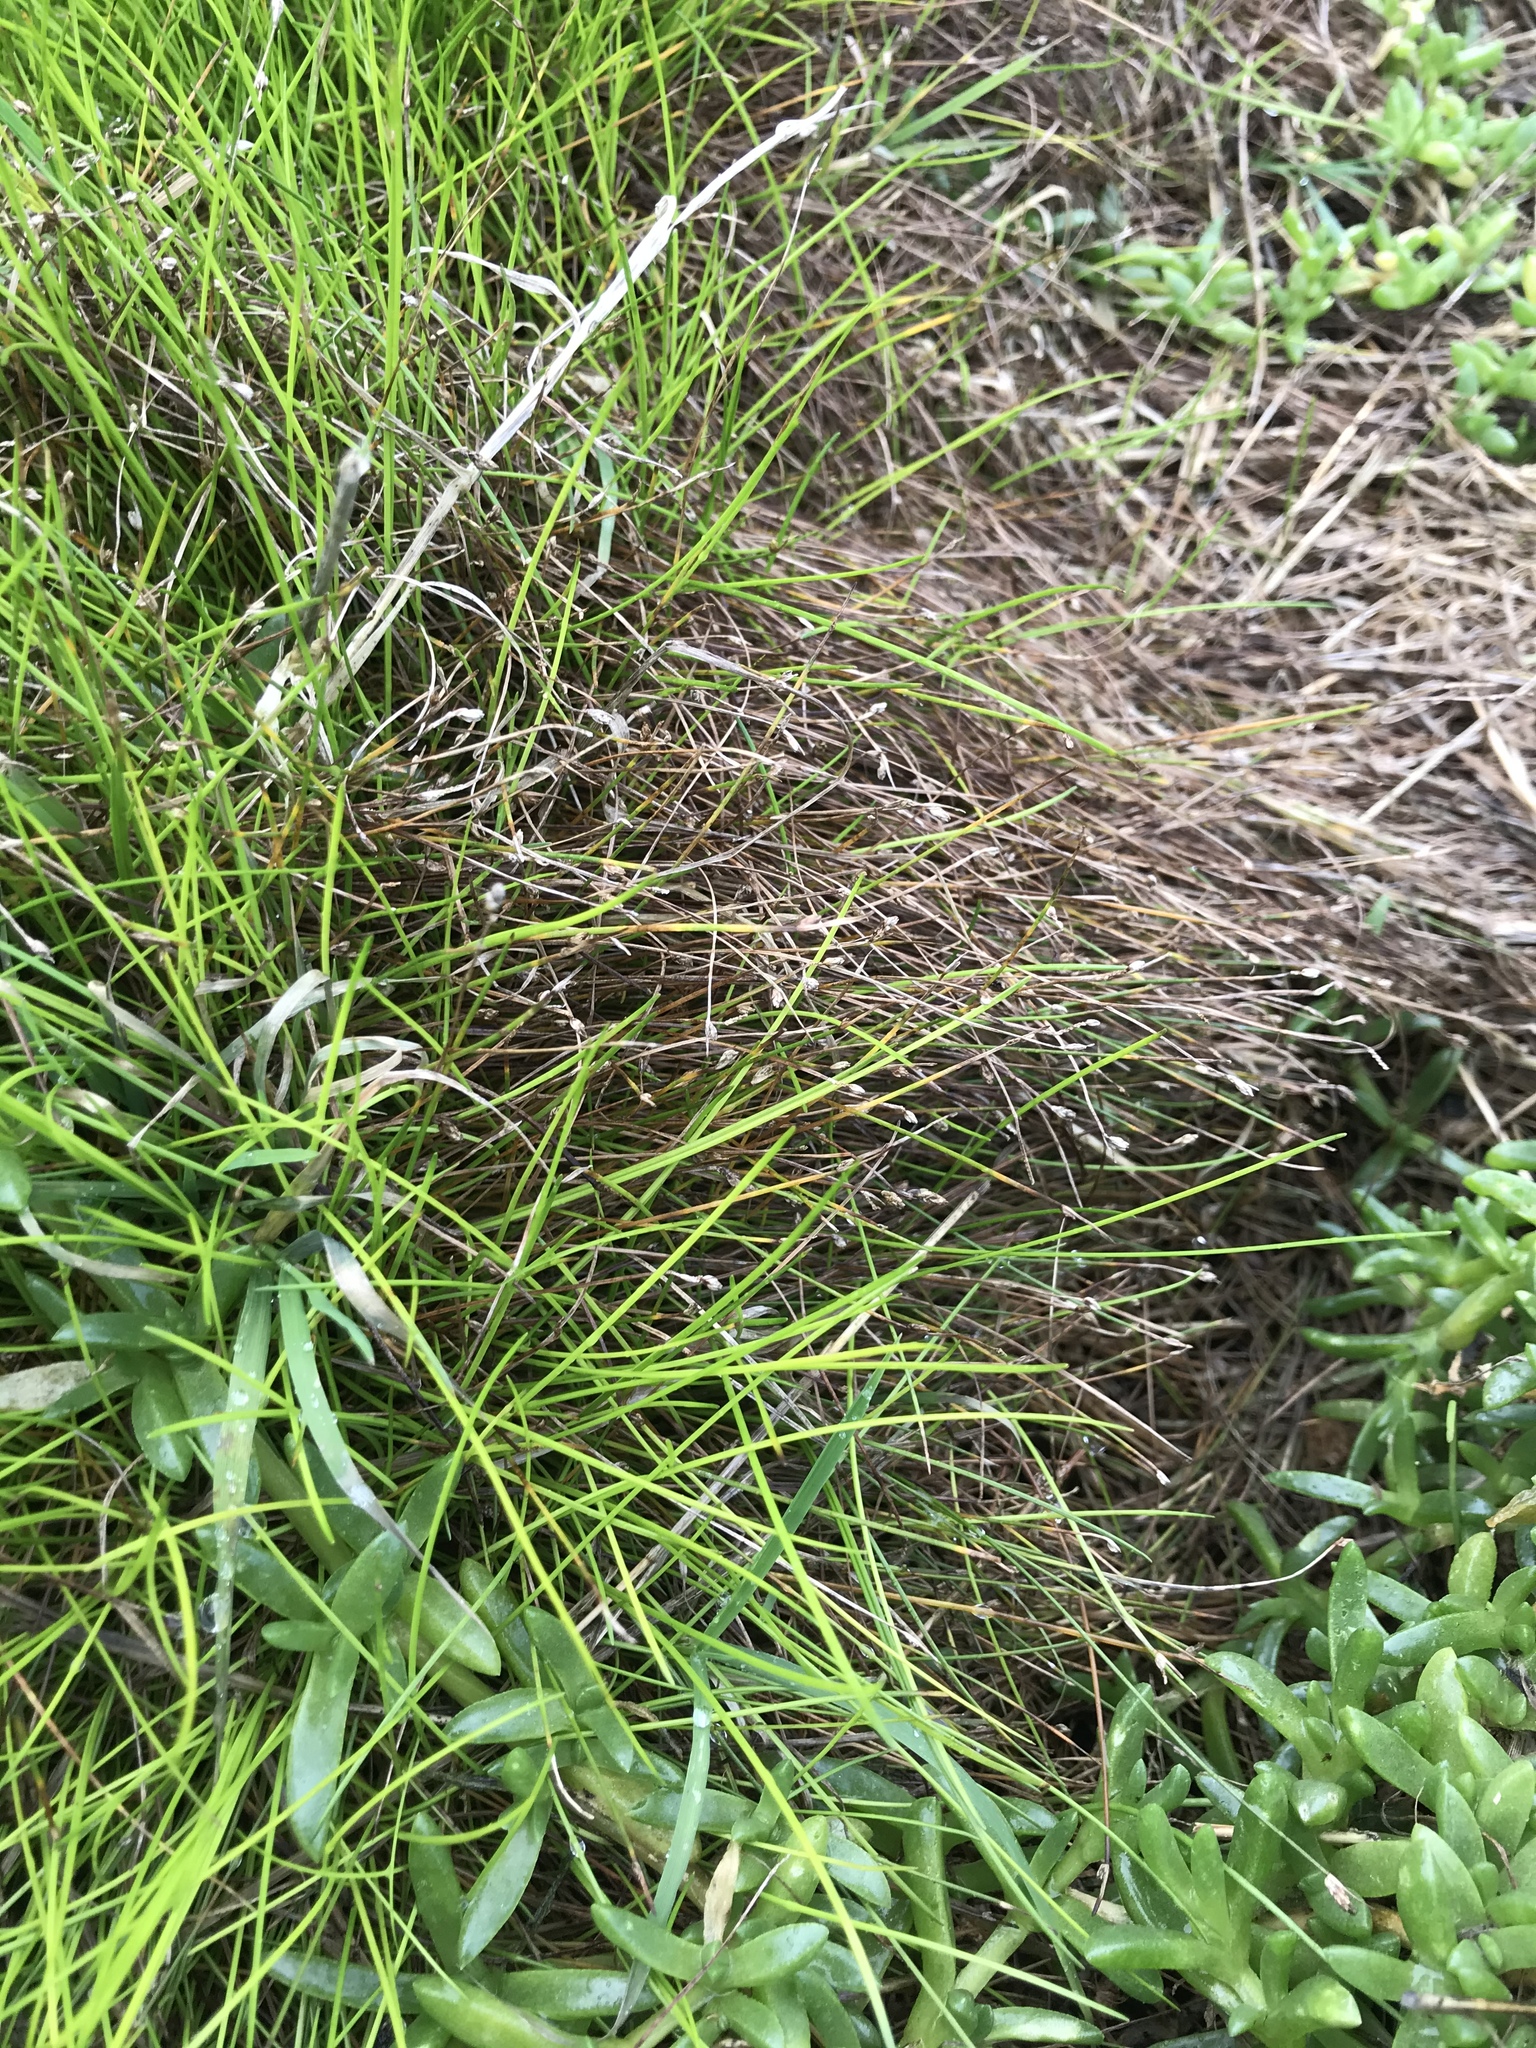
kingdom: Plantae
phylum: Tracheophyta
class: Liliopsida
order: Poales
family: Cyperaceae
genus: Isolepis
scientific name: Isolepis cernua
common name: Slender club-rush
